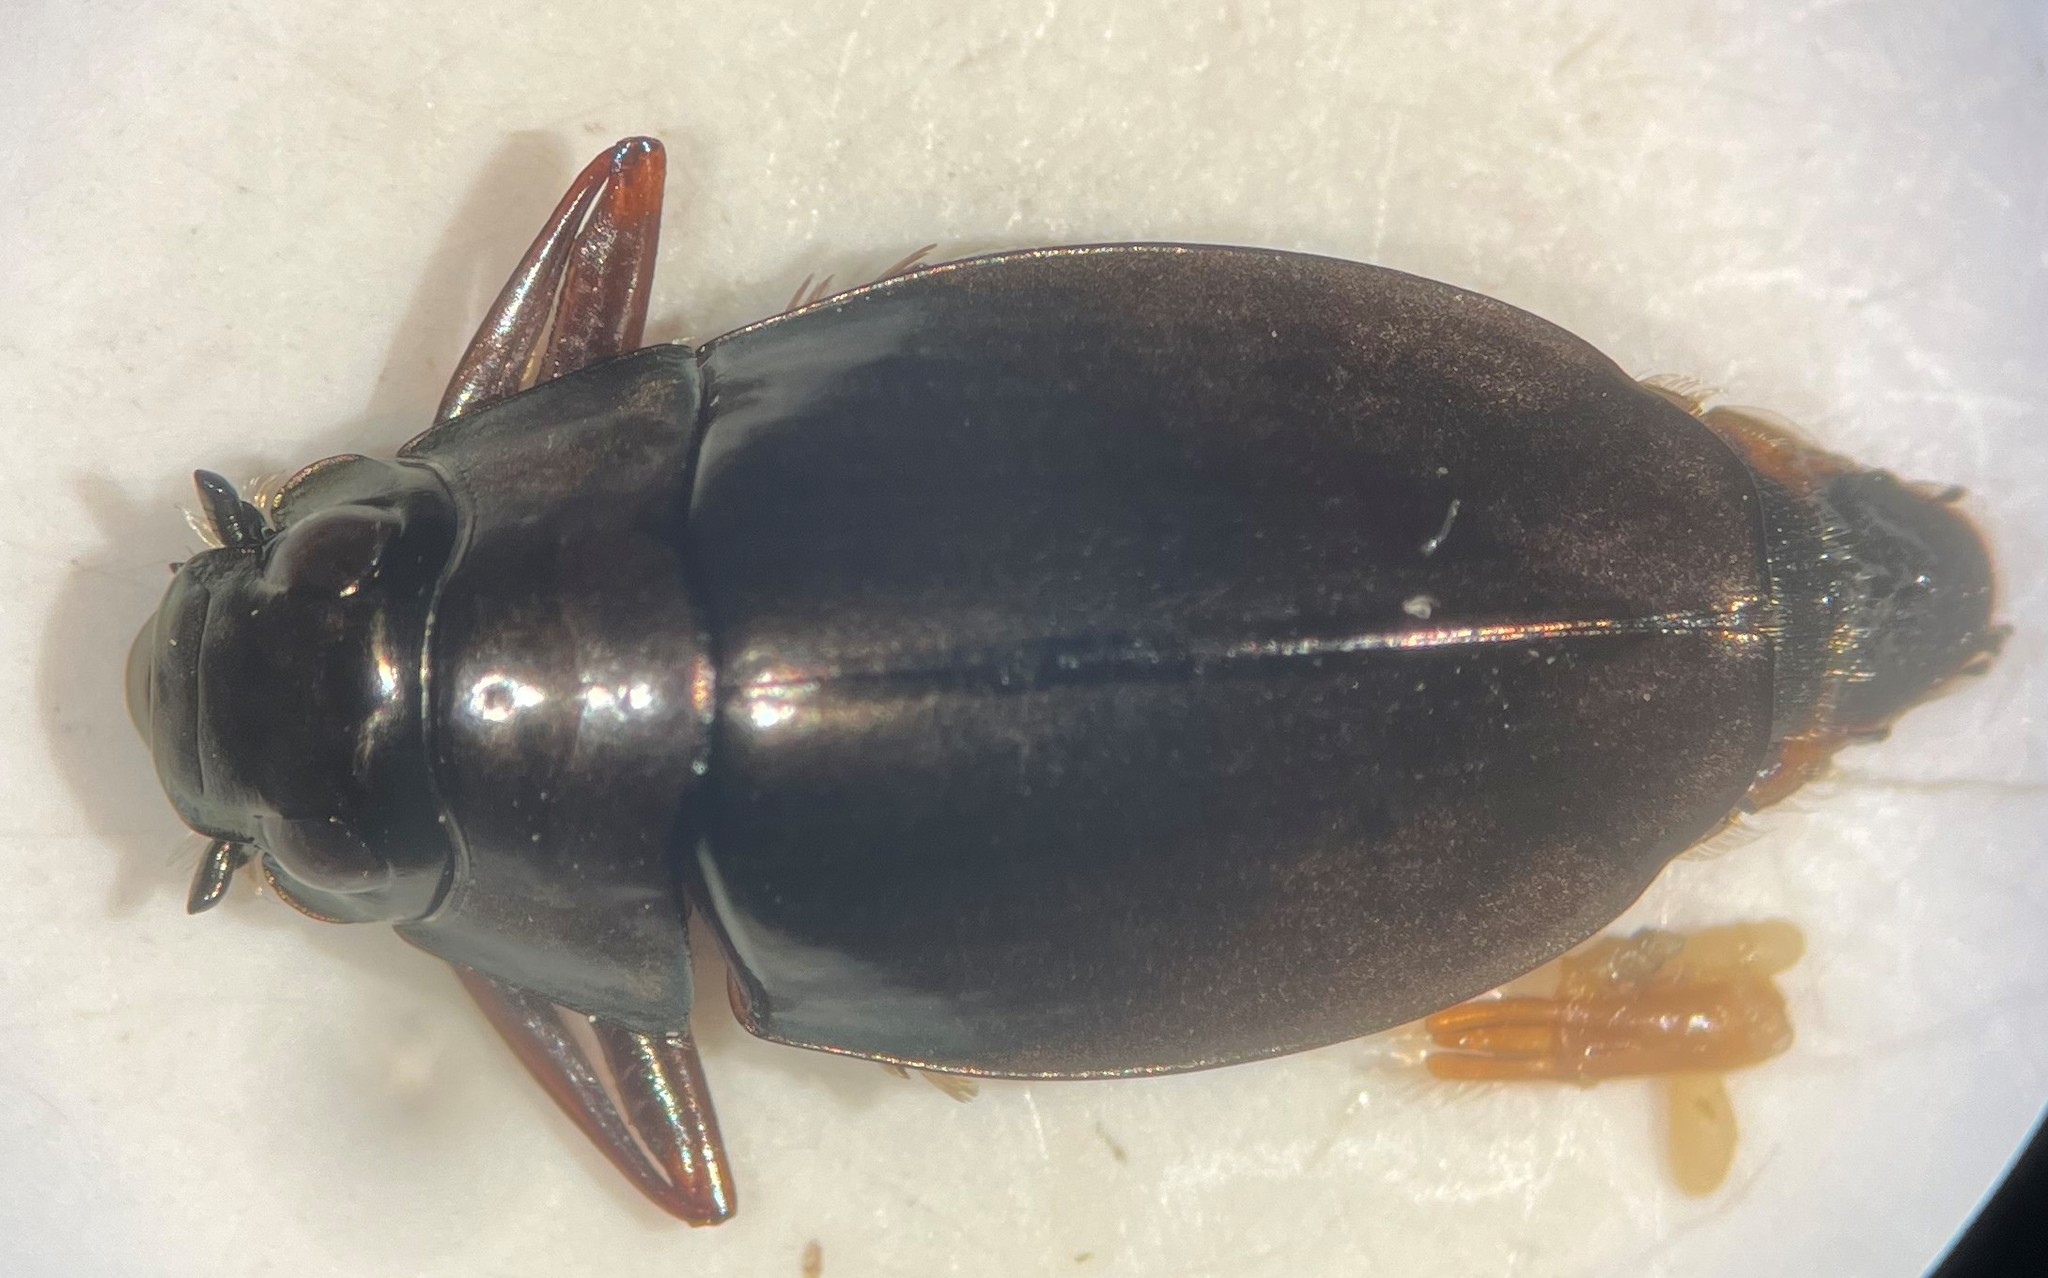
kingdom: Animalia
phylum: Arthropoda
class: Insecta
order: Coleoptera
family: Gyrinidae
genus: Dineutus
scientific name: Dineutus discolor
